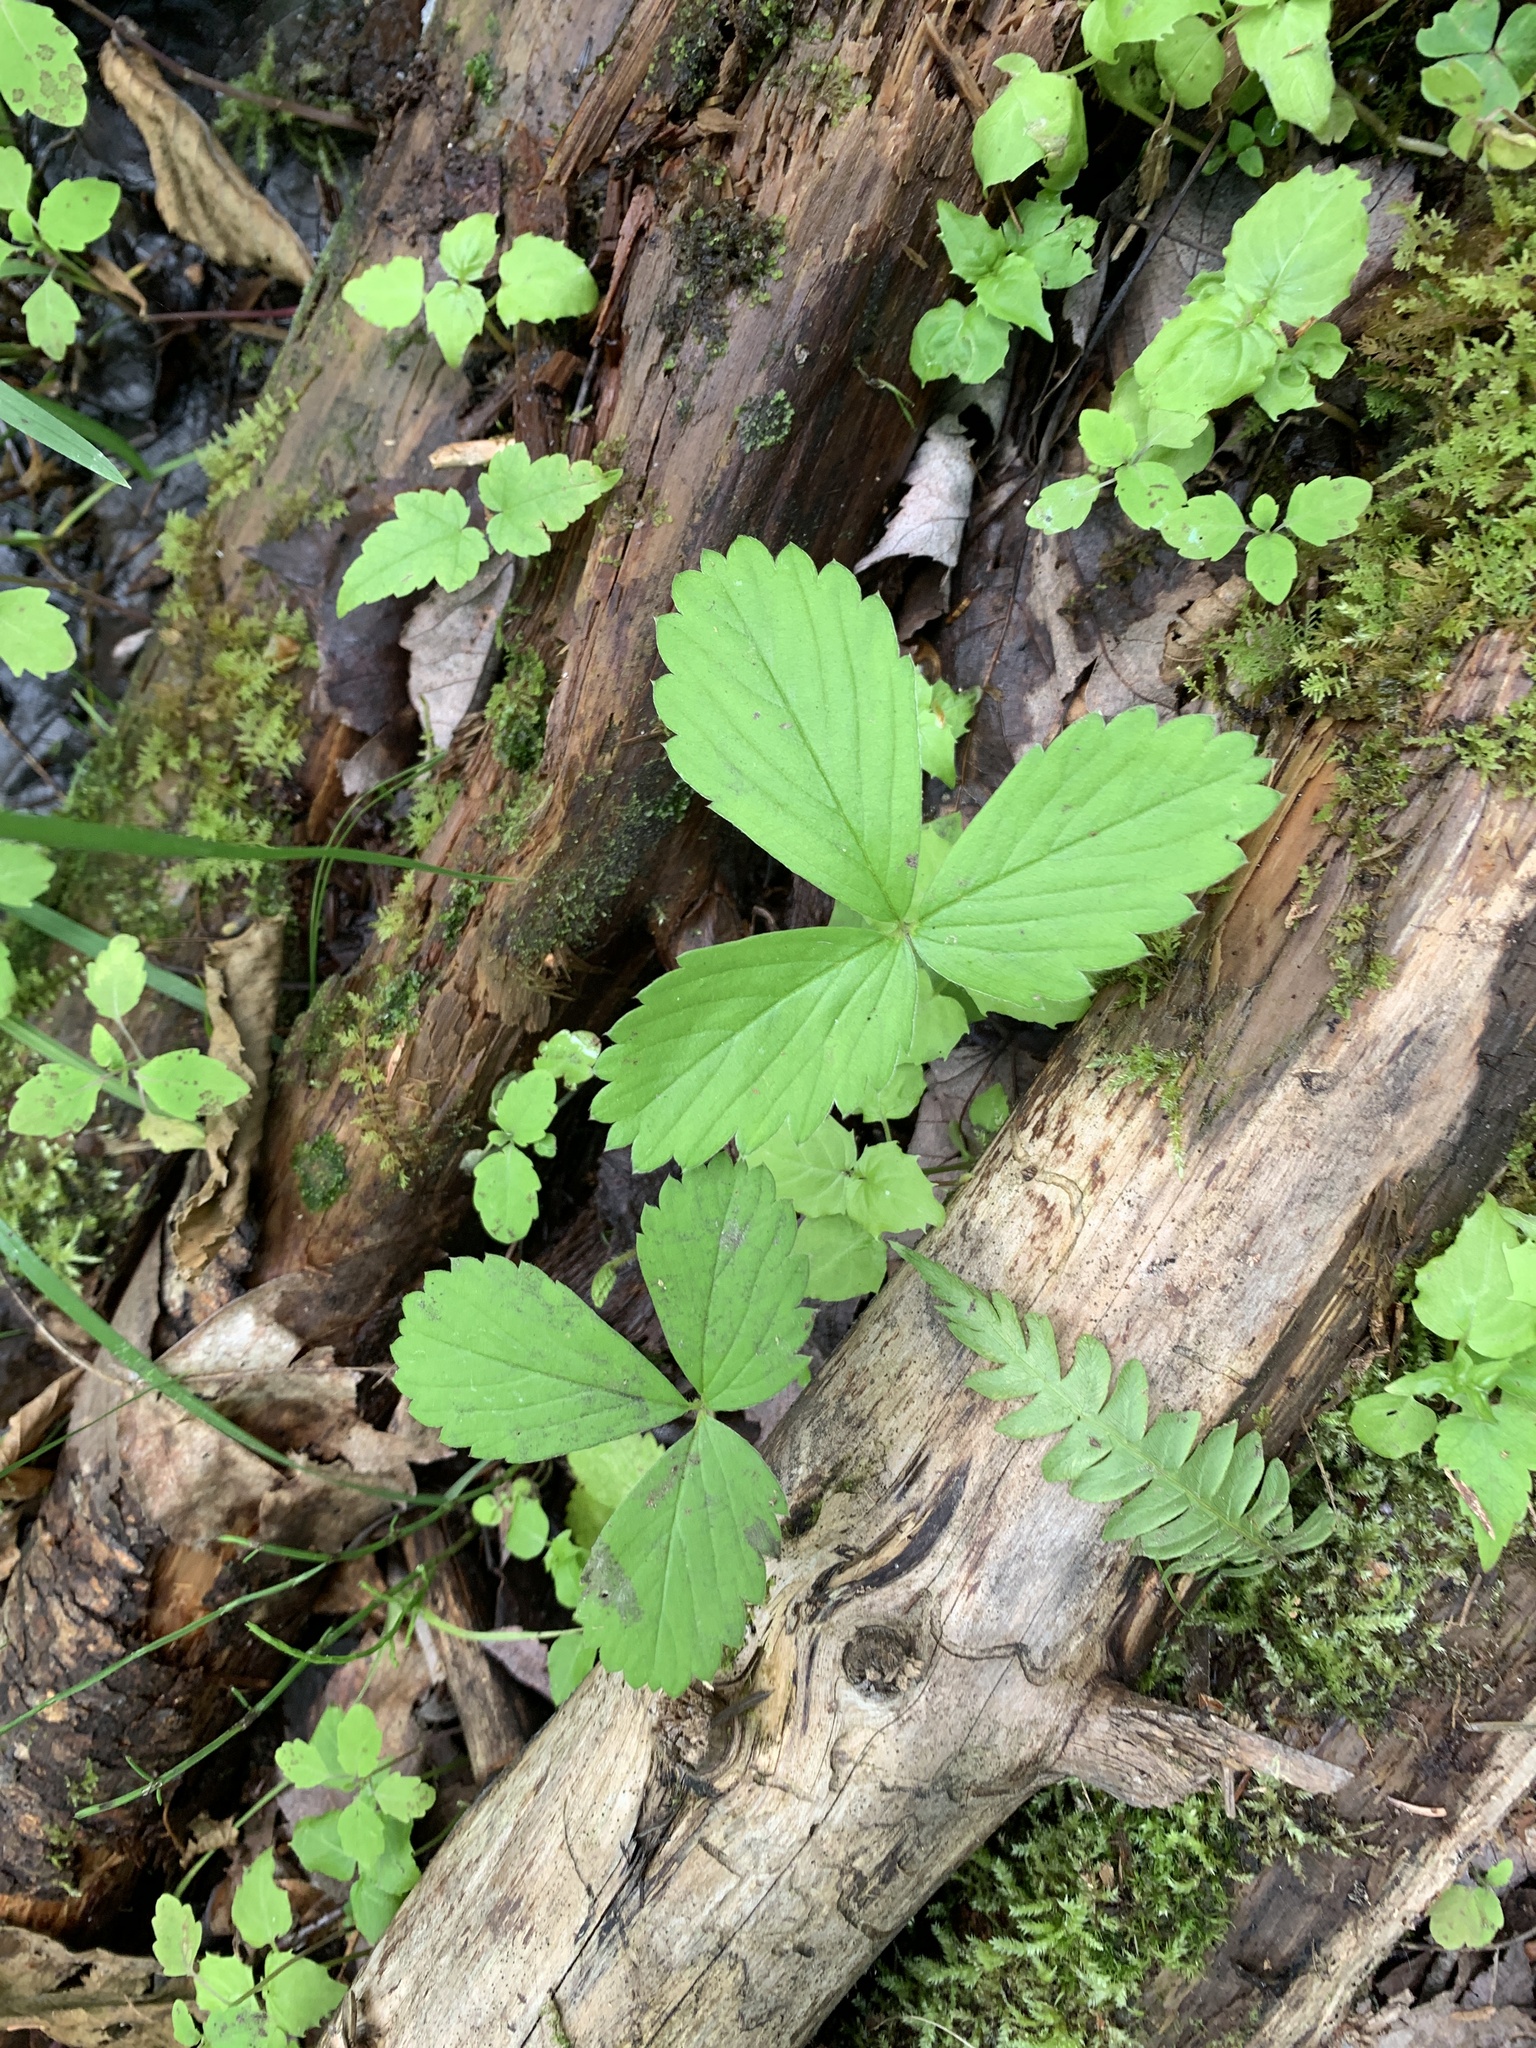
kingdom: Plantae
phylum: Tracheophyta
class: Magnoliopsida
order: Rosales
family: Rosaceae
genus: Fragaria
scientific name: Fragaria virginiana
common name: Thickleaved wild strawberry
